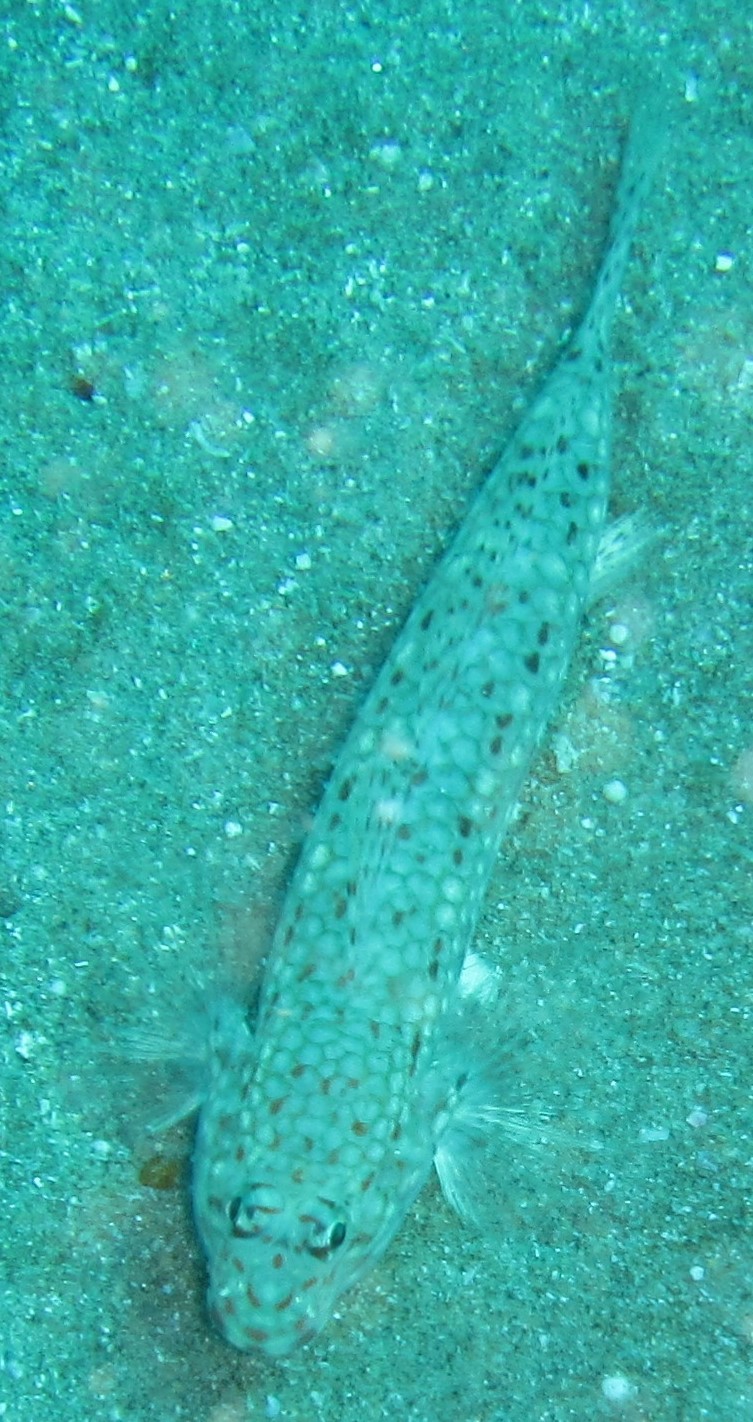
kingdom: Animalia
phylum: Chordata
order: Perciformes
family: Gobiidae
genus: Istigobius
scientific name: Istigobius decoratus
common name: Decorated goby
